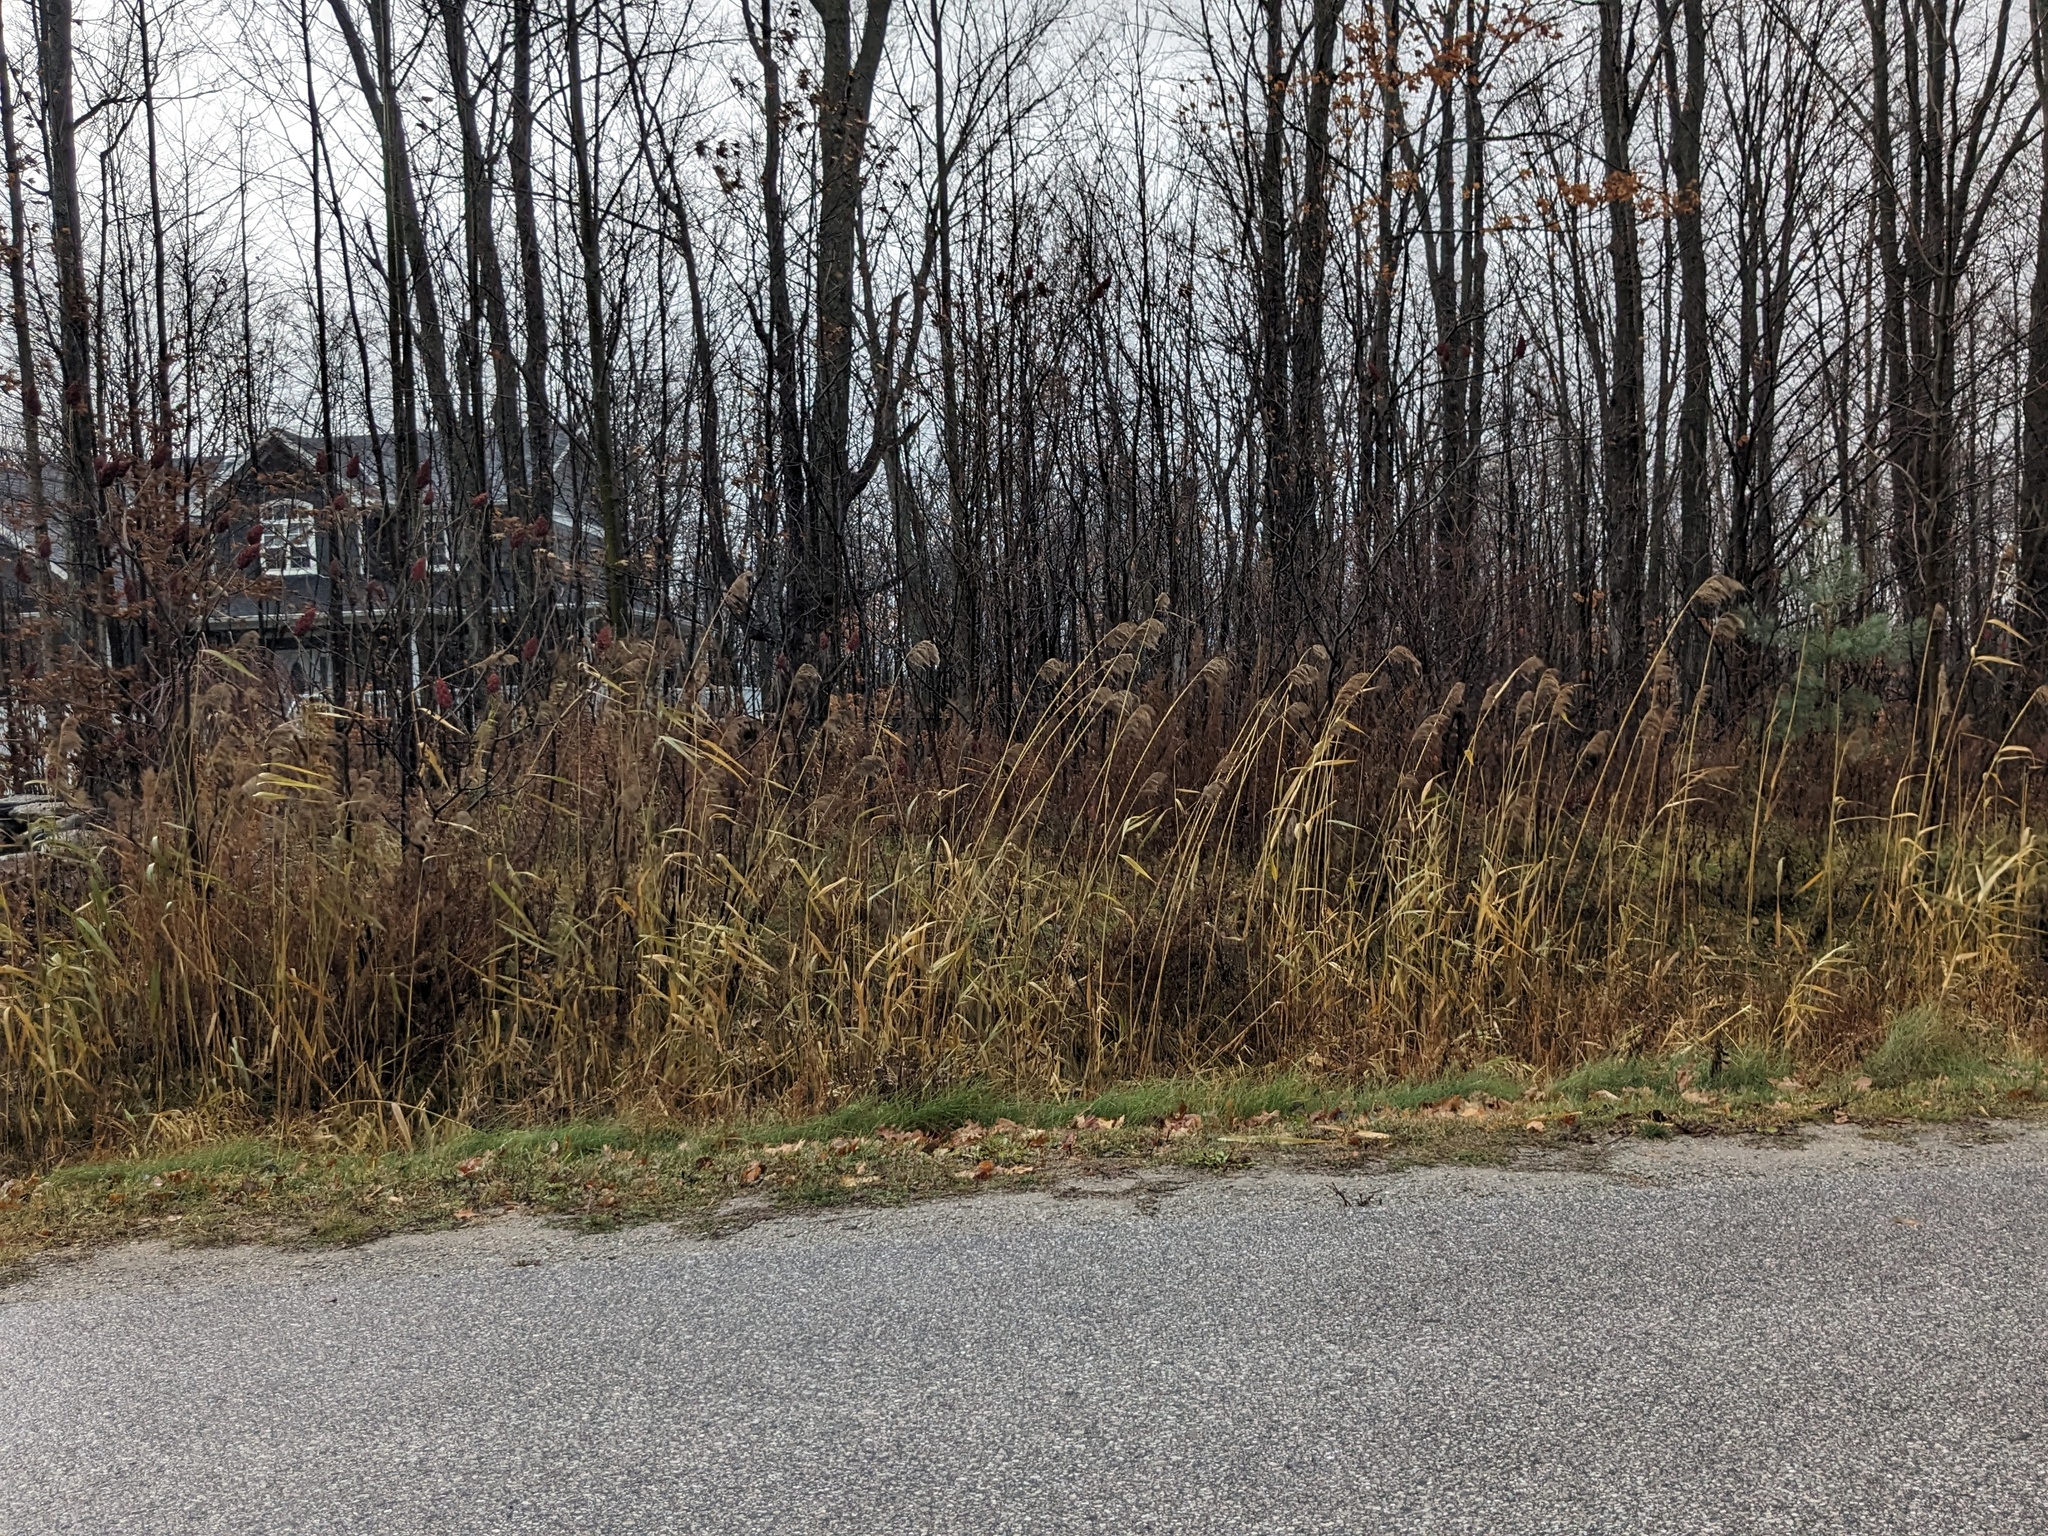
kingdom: Plantae
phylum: Tracheophyta
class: Liliopsida
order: Poales
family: Poaceae
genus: Phragmites
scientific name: Phragmites australis
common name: Common reed
